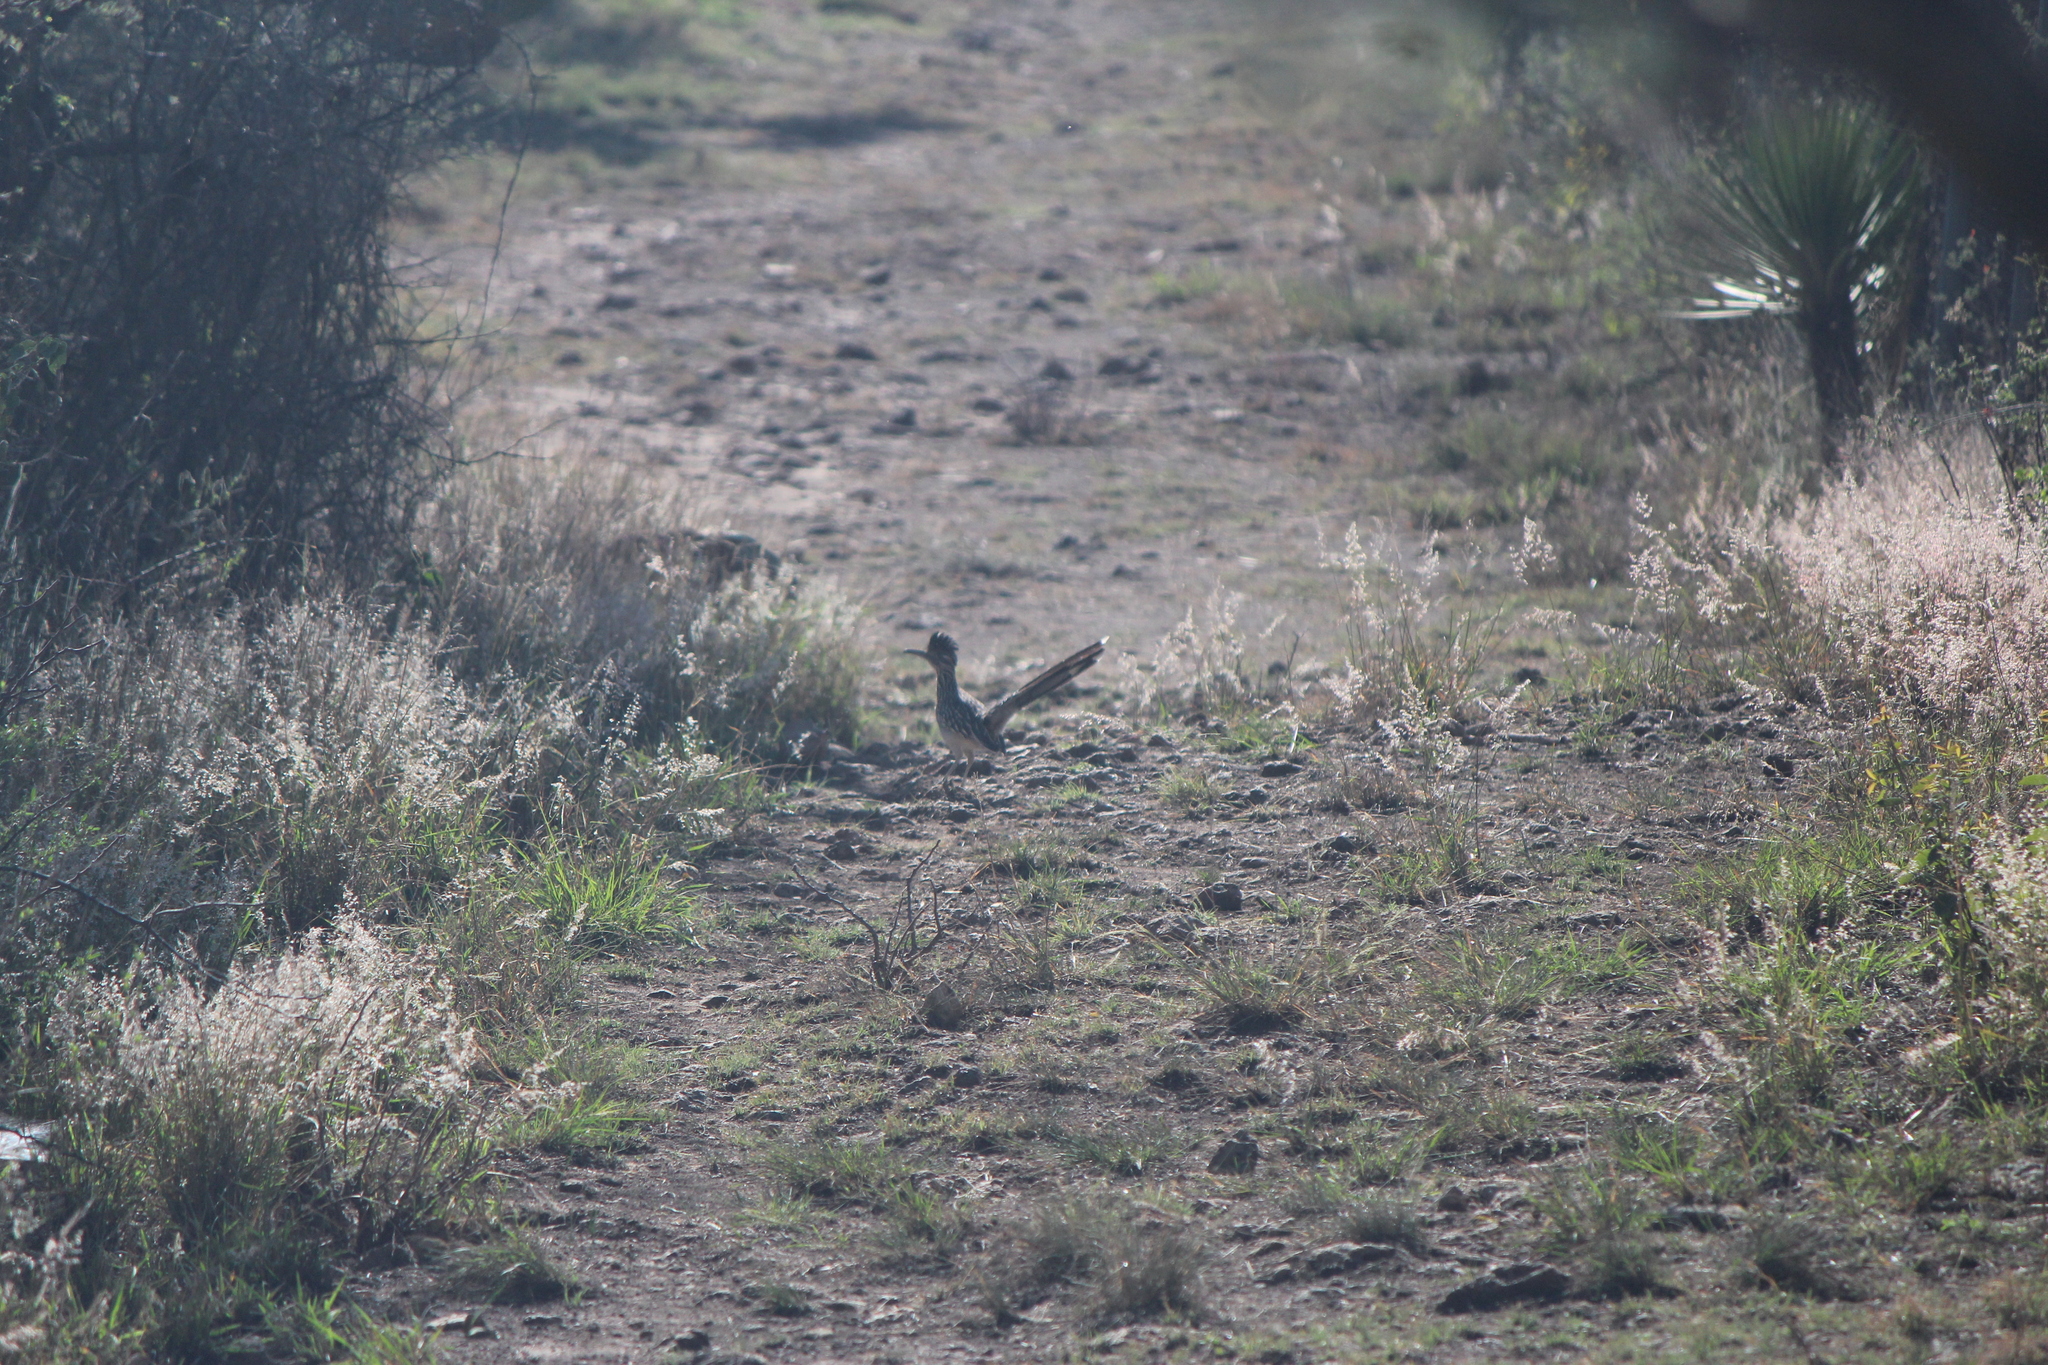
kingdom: Animalia
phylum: Chordata
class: Aves
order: Cuculiformes
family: Cuculidae
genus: Geococcyx
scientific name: Geococcyx californianus
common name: Greater roadrunner
